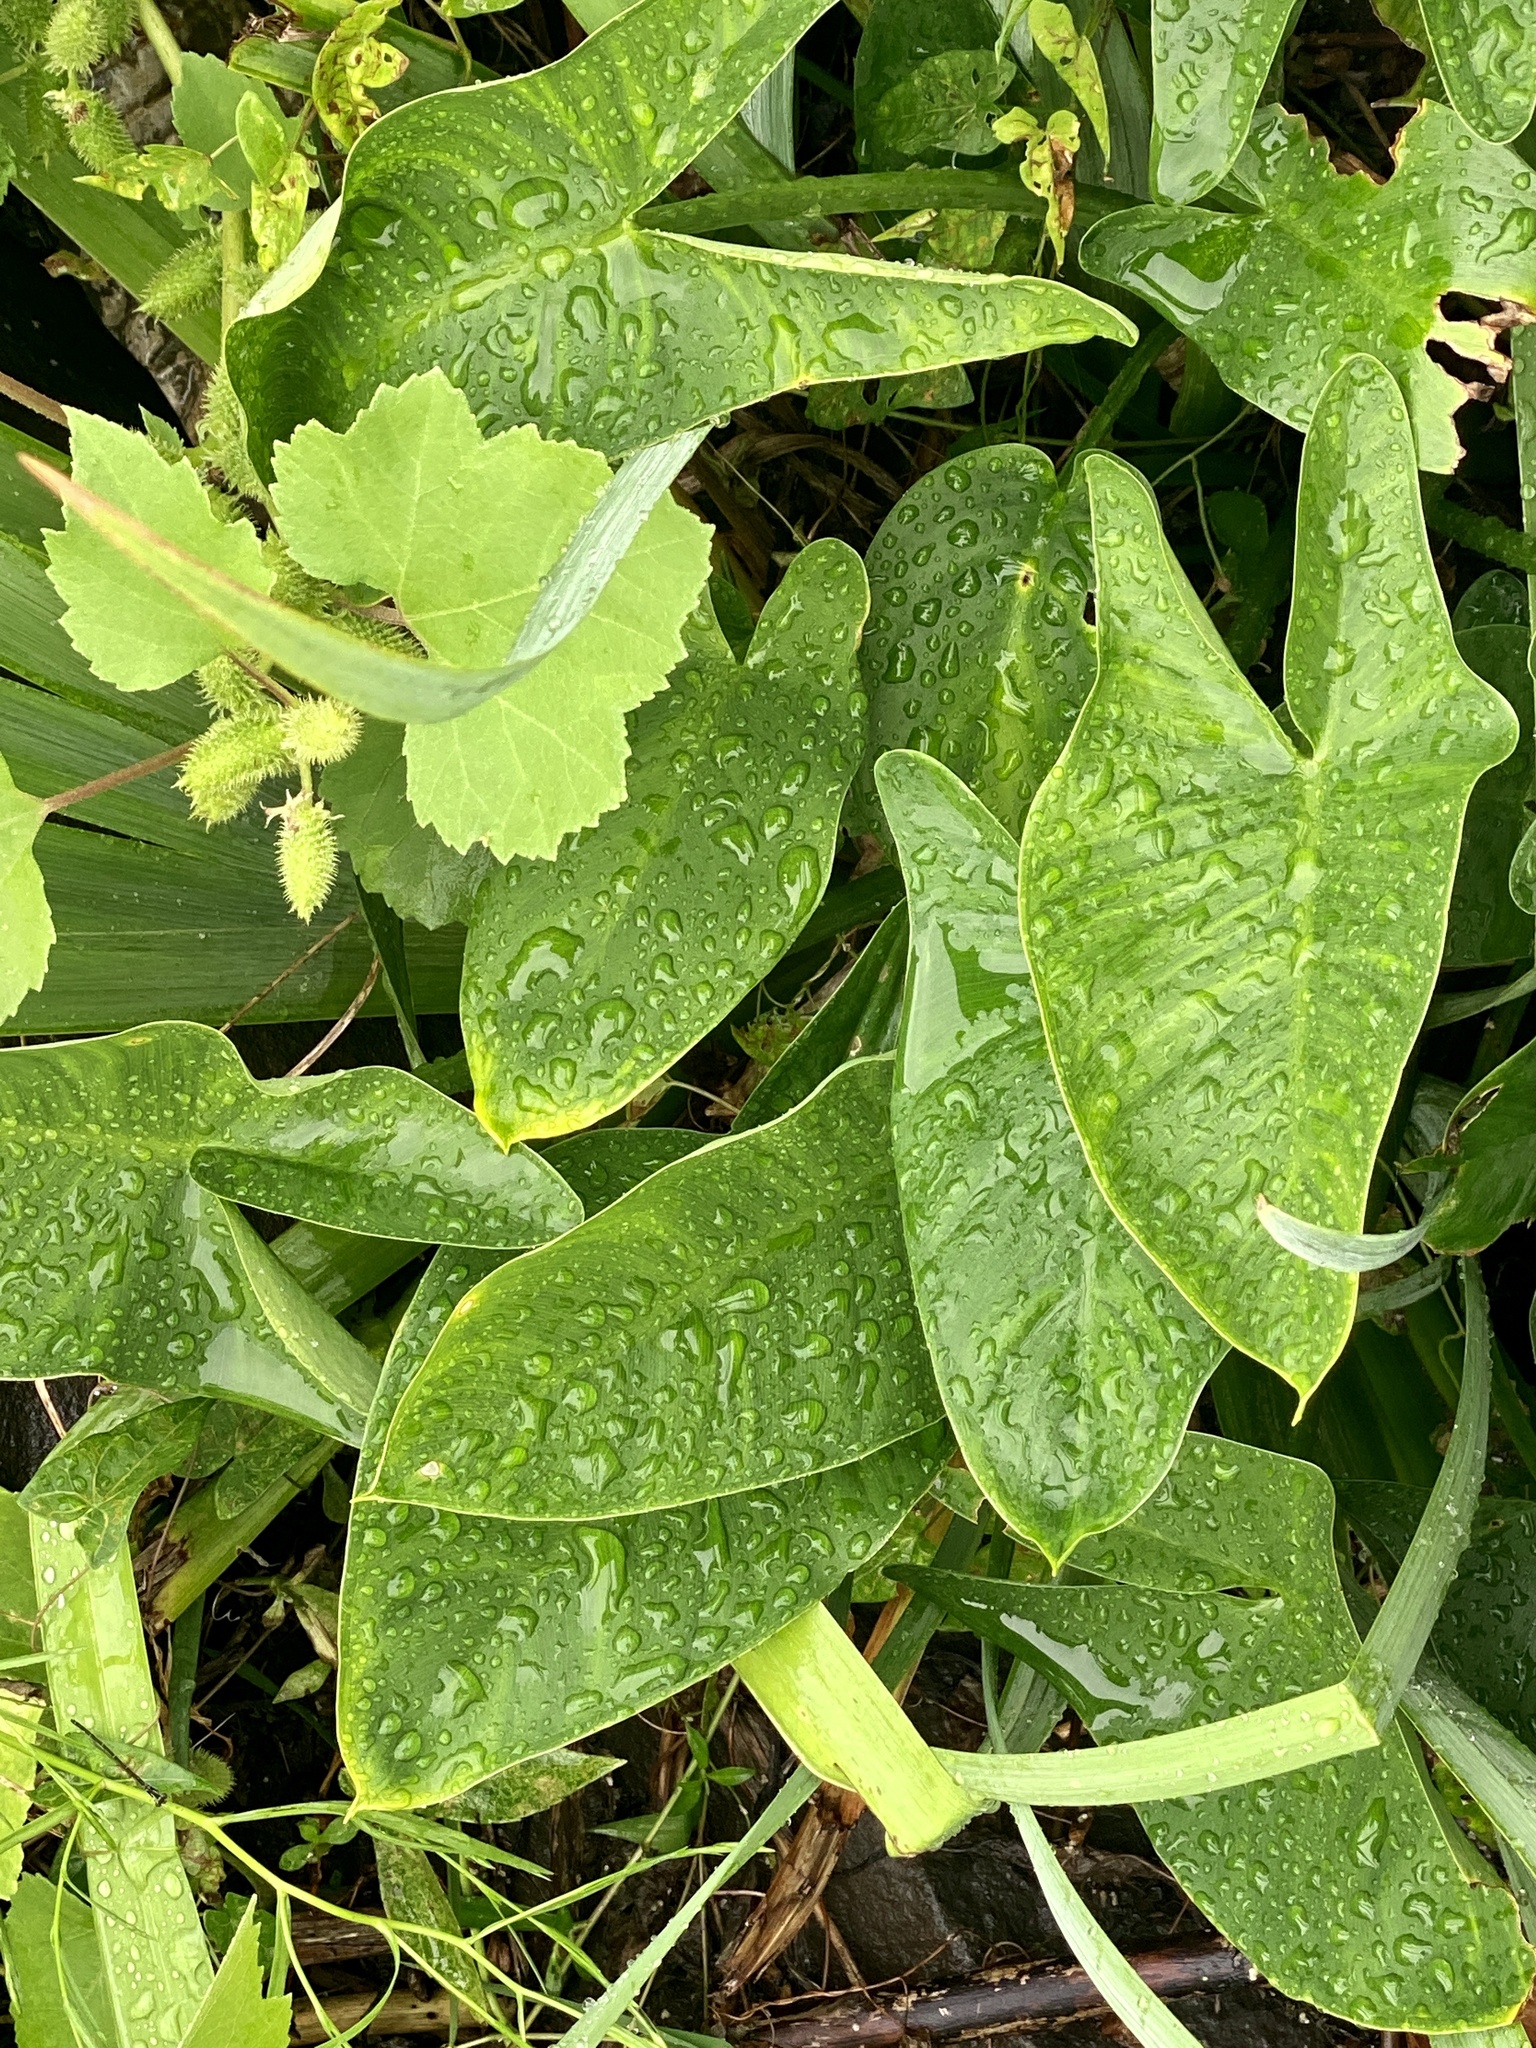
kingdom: Plantae
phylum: Tracheophyta
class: Liliopsida
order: Alismatales
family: Araceae
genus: Peltandra
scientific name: Peltandra virginica
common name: Arrow arum
